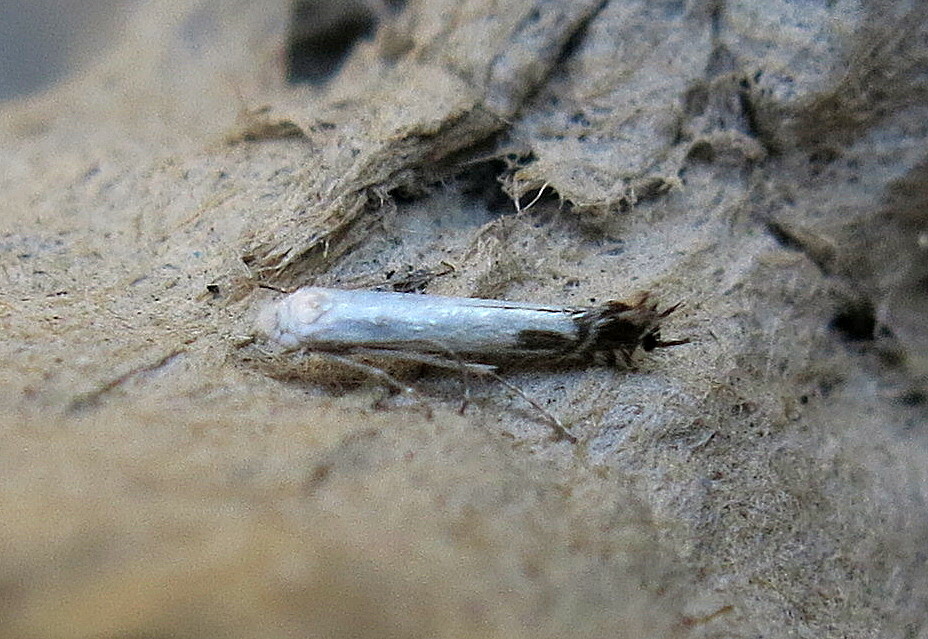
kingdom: Animalia
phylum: Arthropoda
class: Insecta
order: Lepidoptera
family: Lyonetiidae
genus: Lyonetia
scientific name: Lyonetia clerkella
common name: Apple leaf miner
